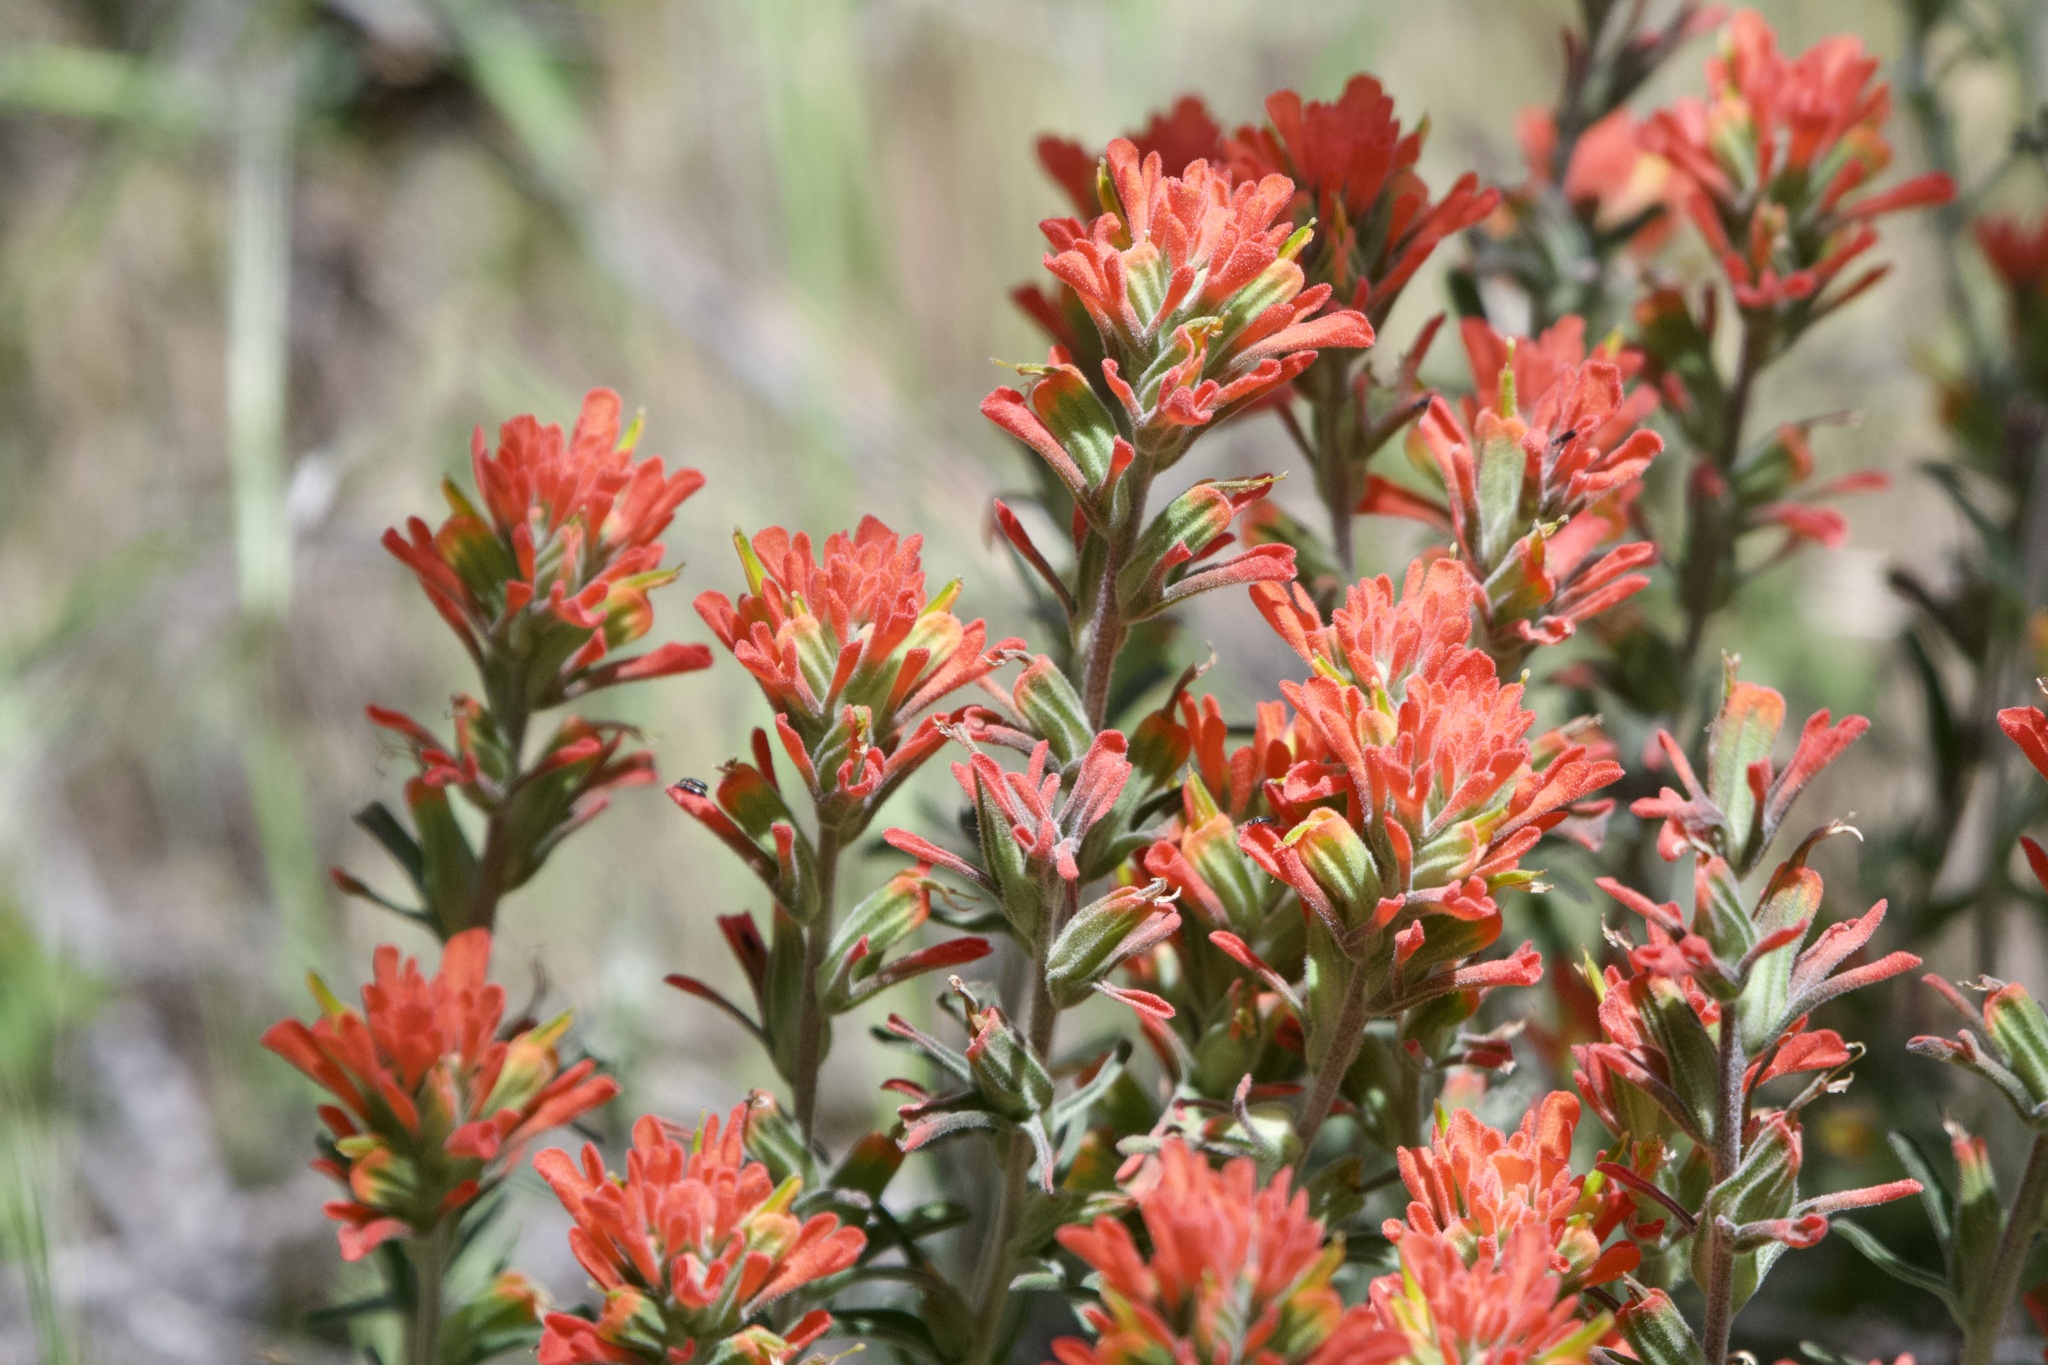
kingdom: Plantae
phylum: Tracheophyta
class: Magnoliopsida
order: Lamiales
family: Orobanchaceae
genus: Castilleja
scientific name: Castilleja foliolosa
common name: Woolly indian paintbrush
